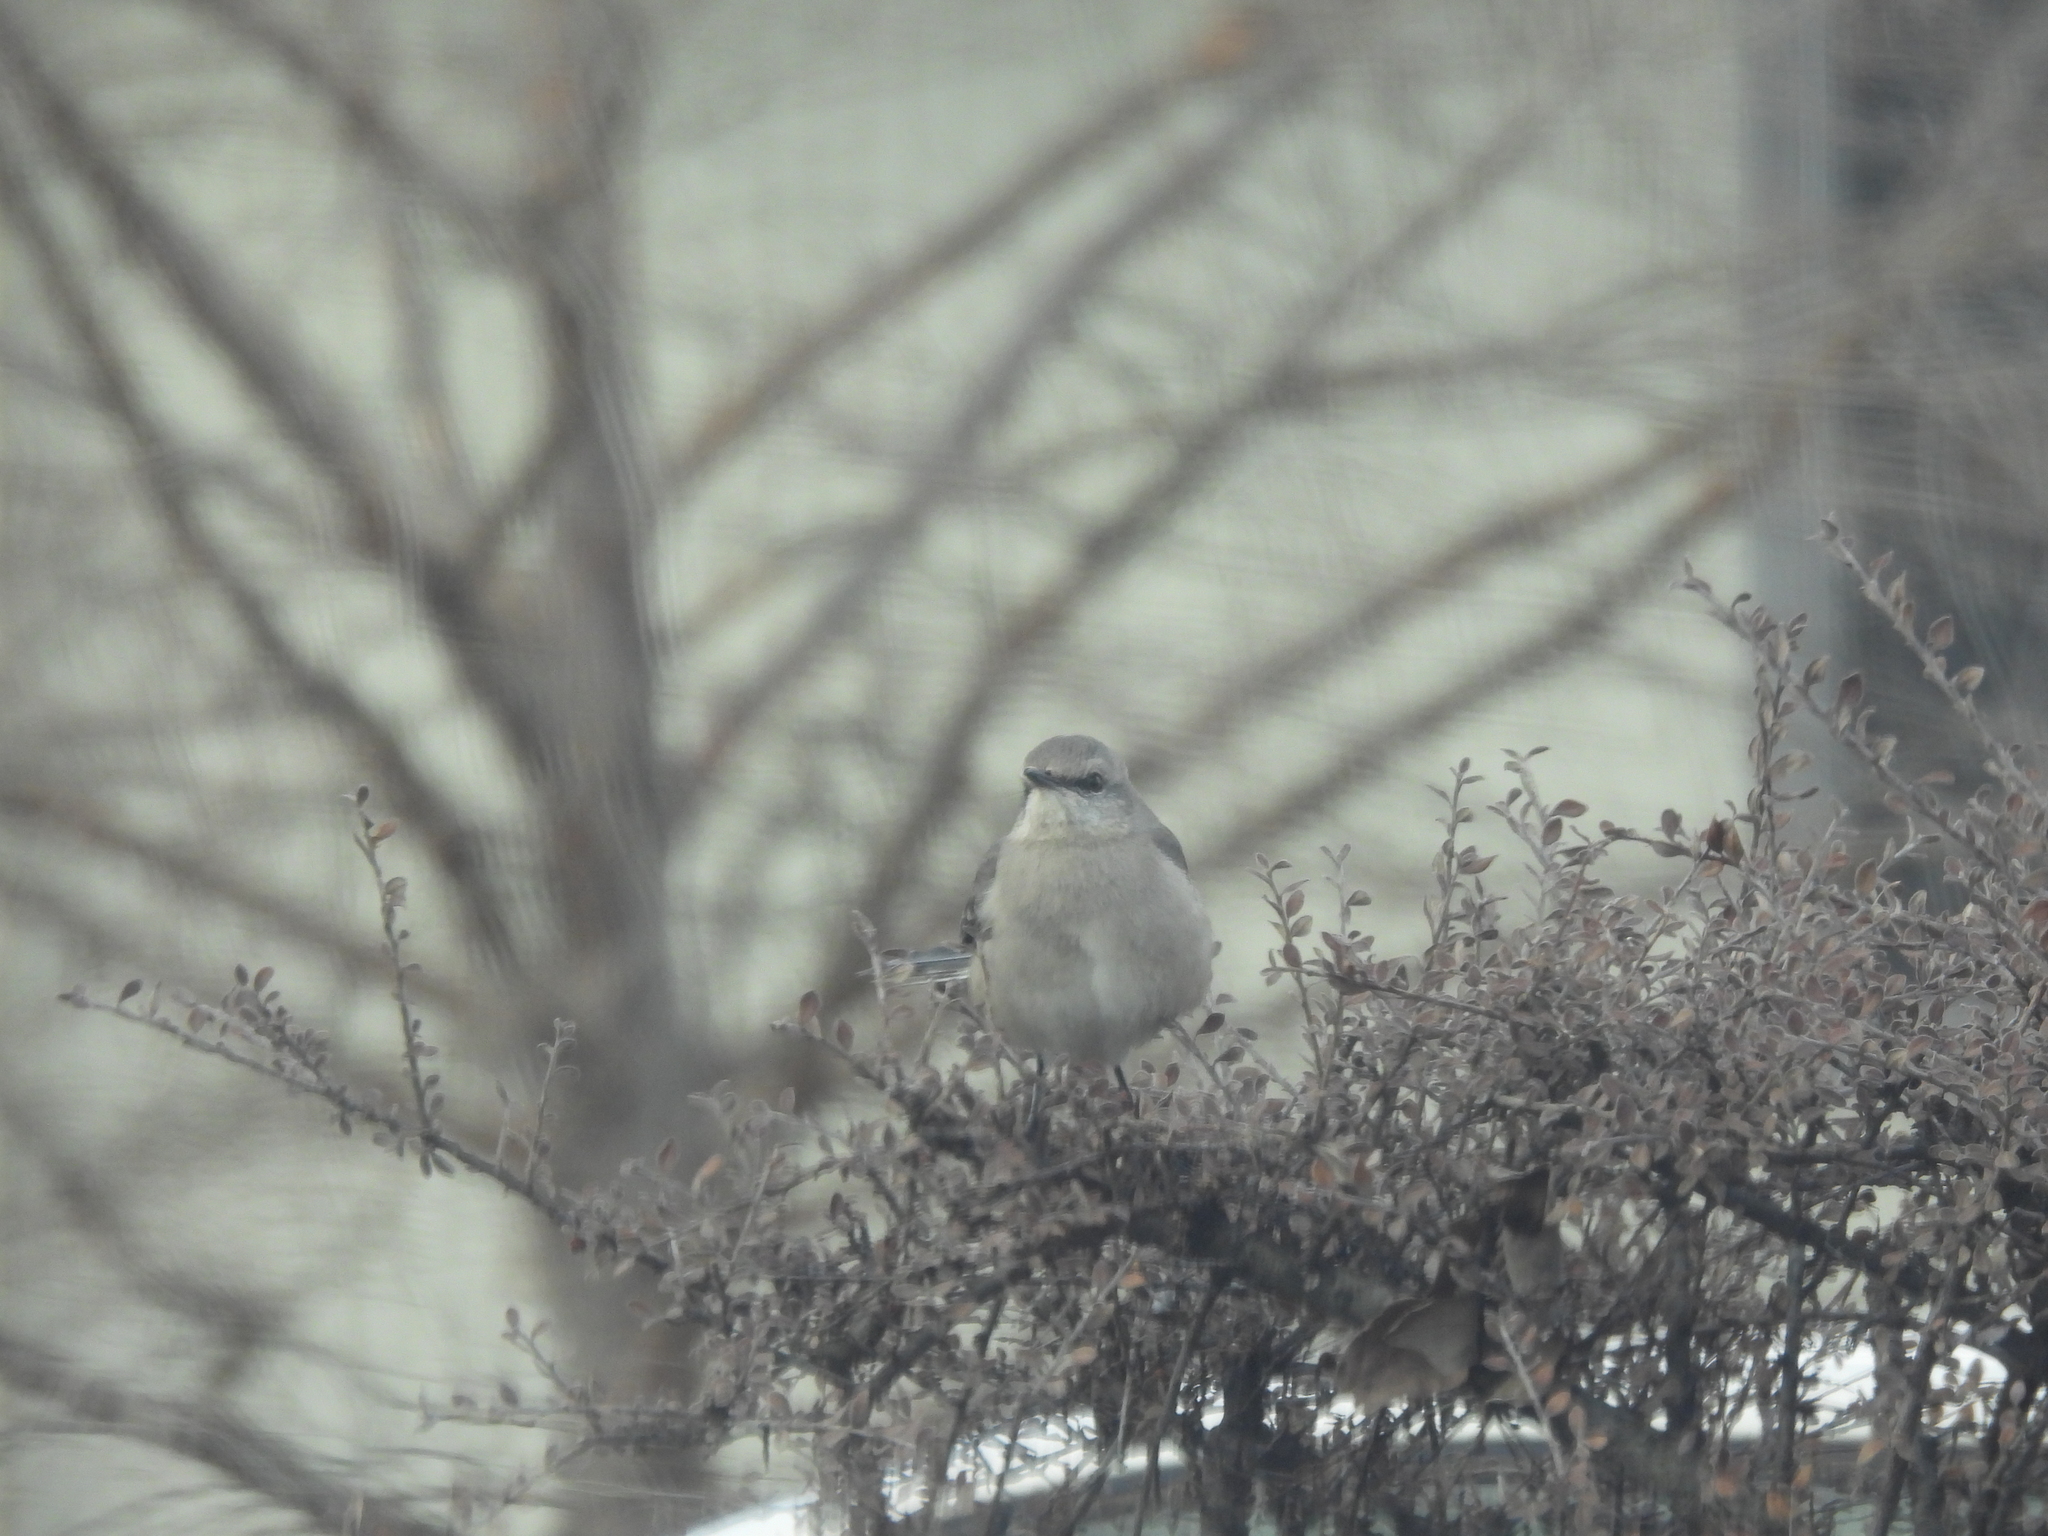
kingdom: Animalia
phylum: Chordata
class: Aves
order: Passeriformes
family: Mimidae
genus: Mimus
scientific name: Mimus polyglottos
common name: Northern mockingbird
